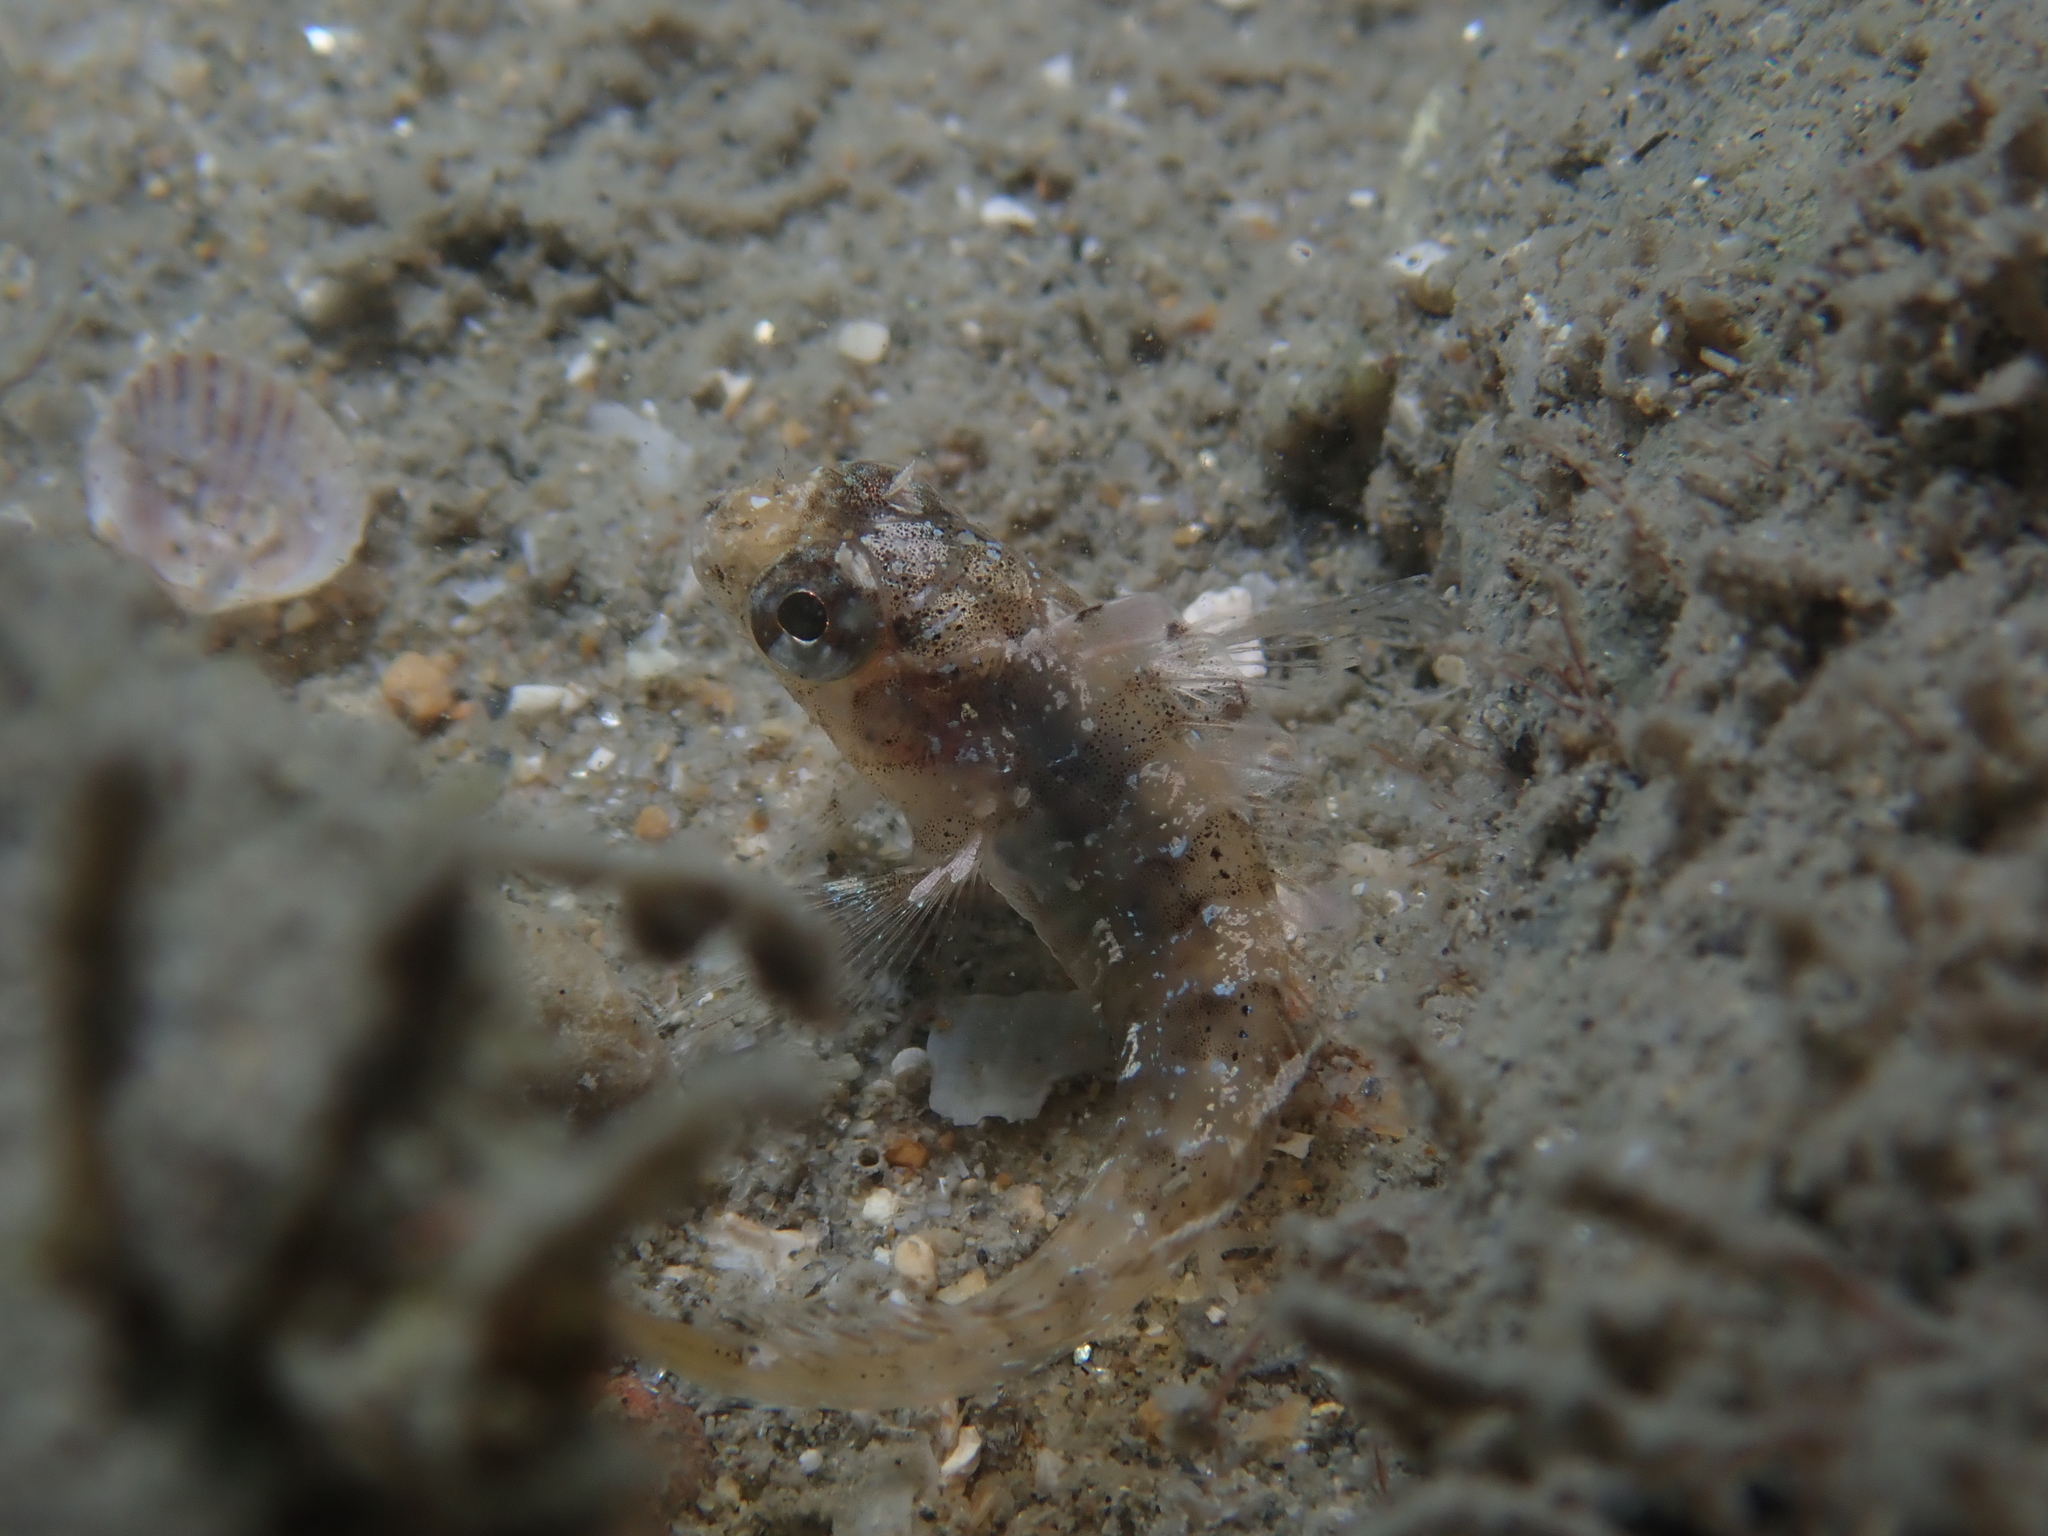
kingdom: Animalia
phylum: Chordata
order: Perciformes
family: Blenniidae
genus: Parablennius
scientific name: Parablennius gattorugine
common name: Tompot blenny
